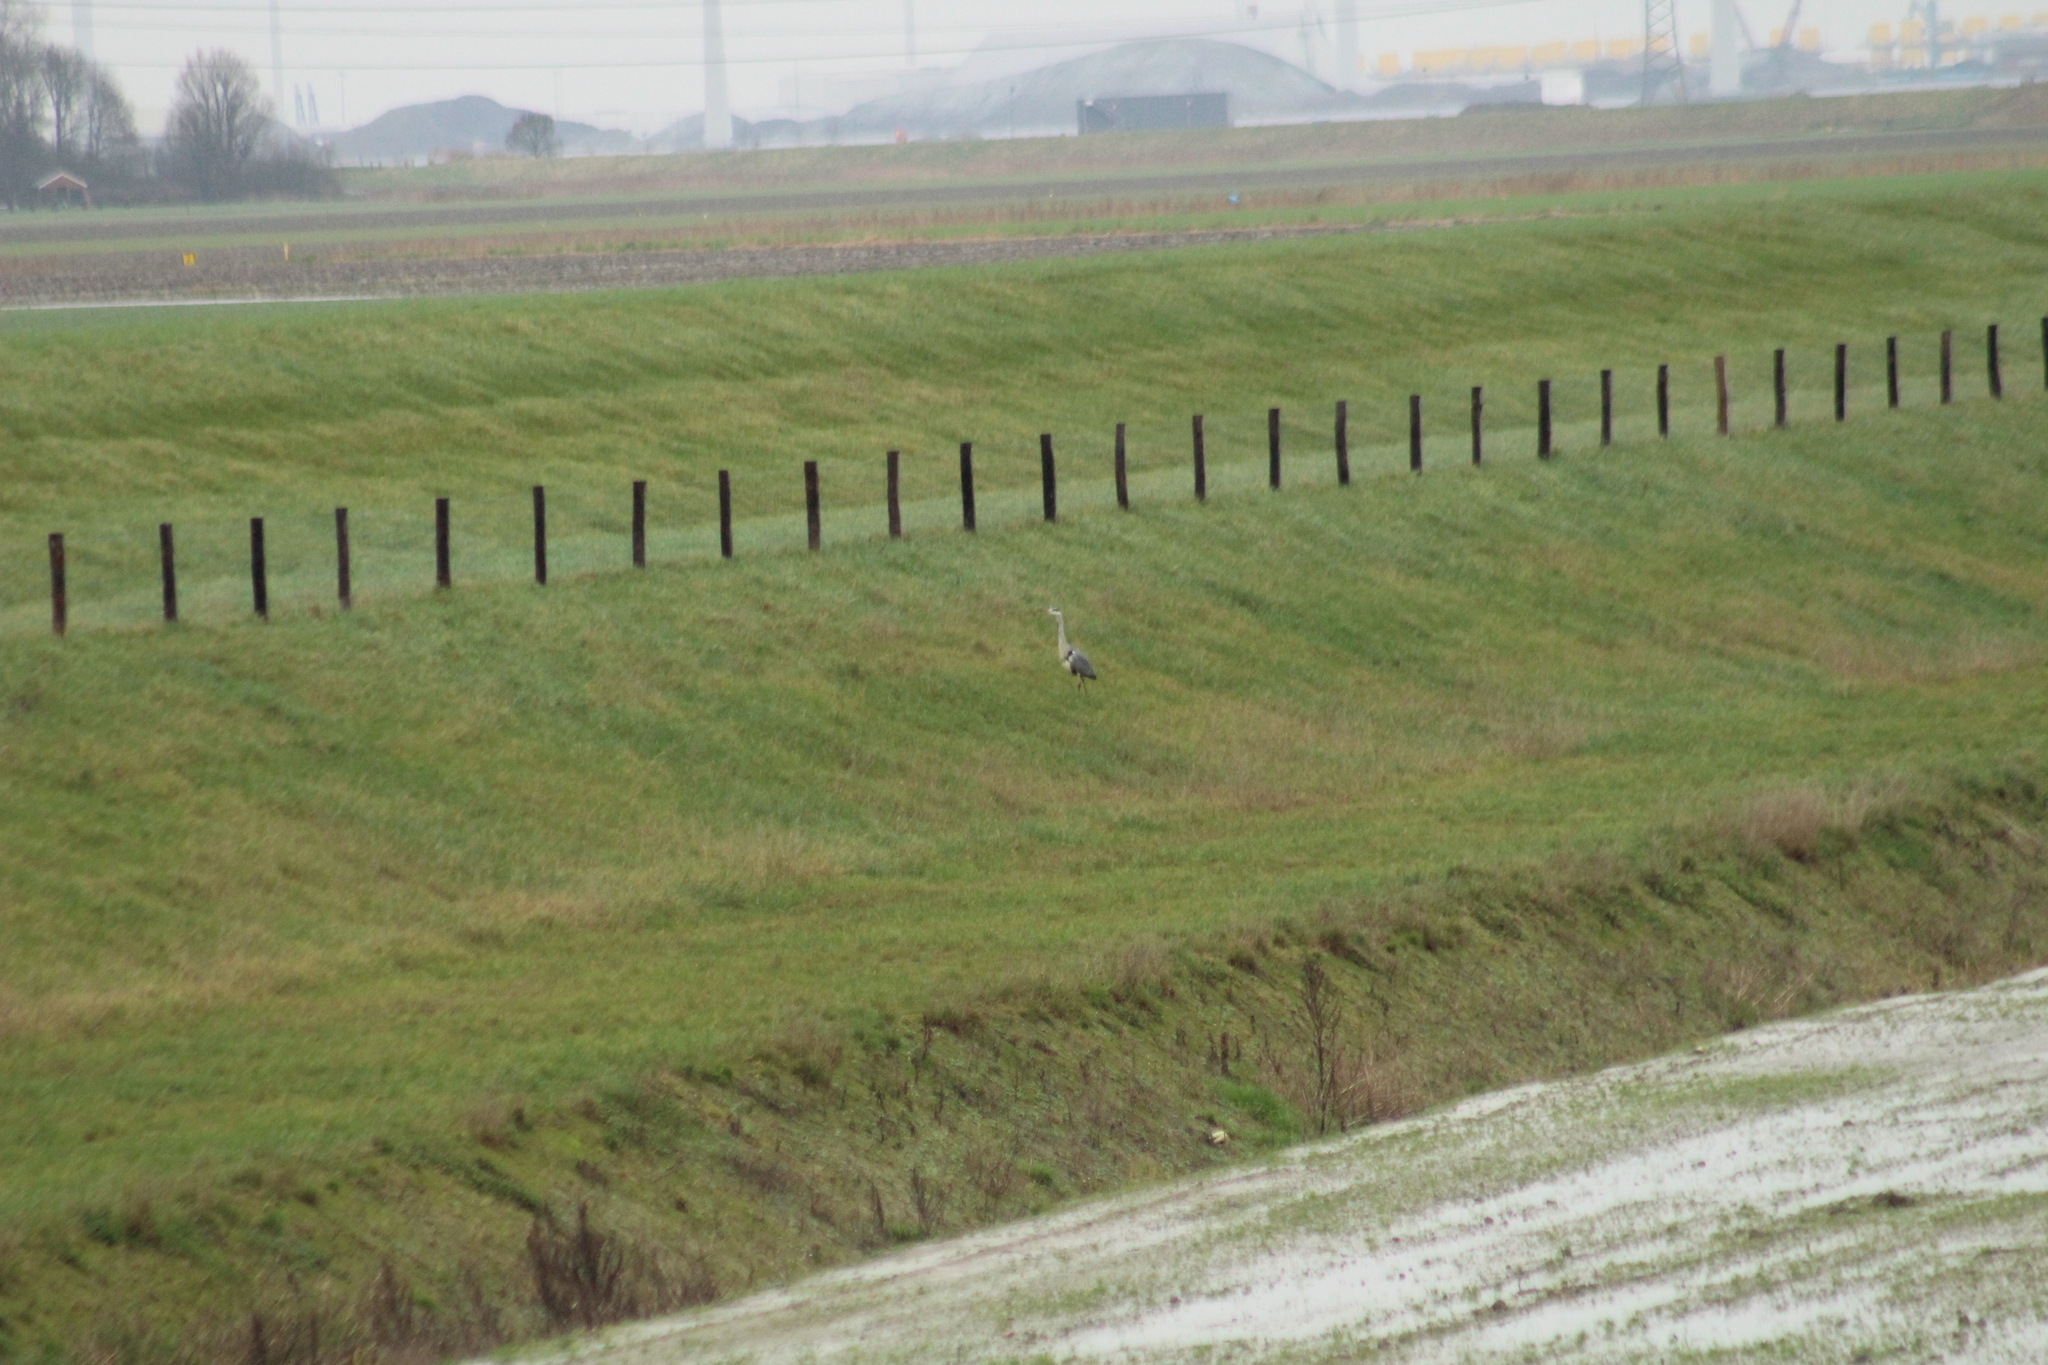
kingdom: Animalia
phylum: Chordata
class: Aves
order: Pelecaniformes
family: Ardeidae
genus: Ardea
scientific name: Ardea cinerea
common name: Grey heron
